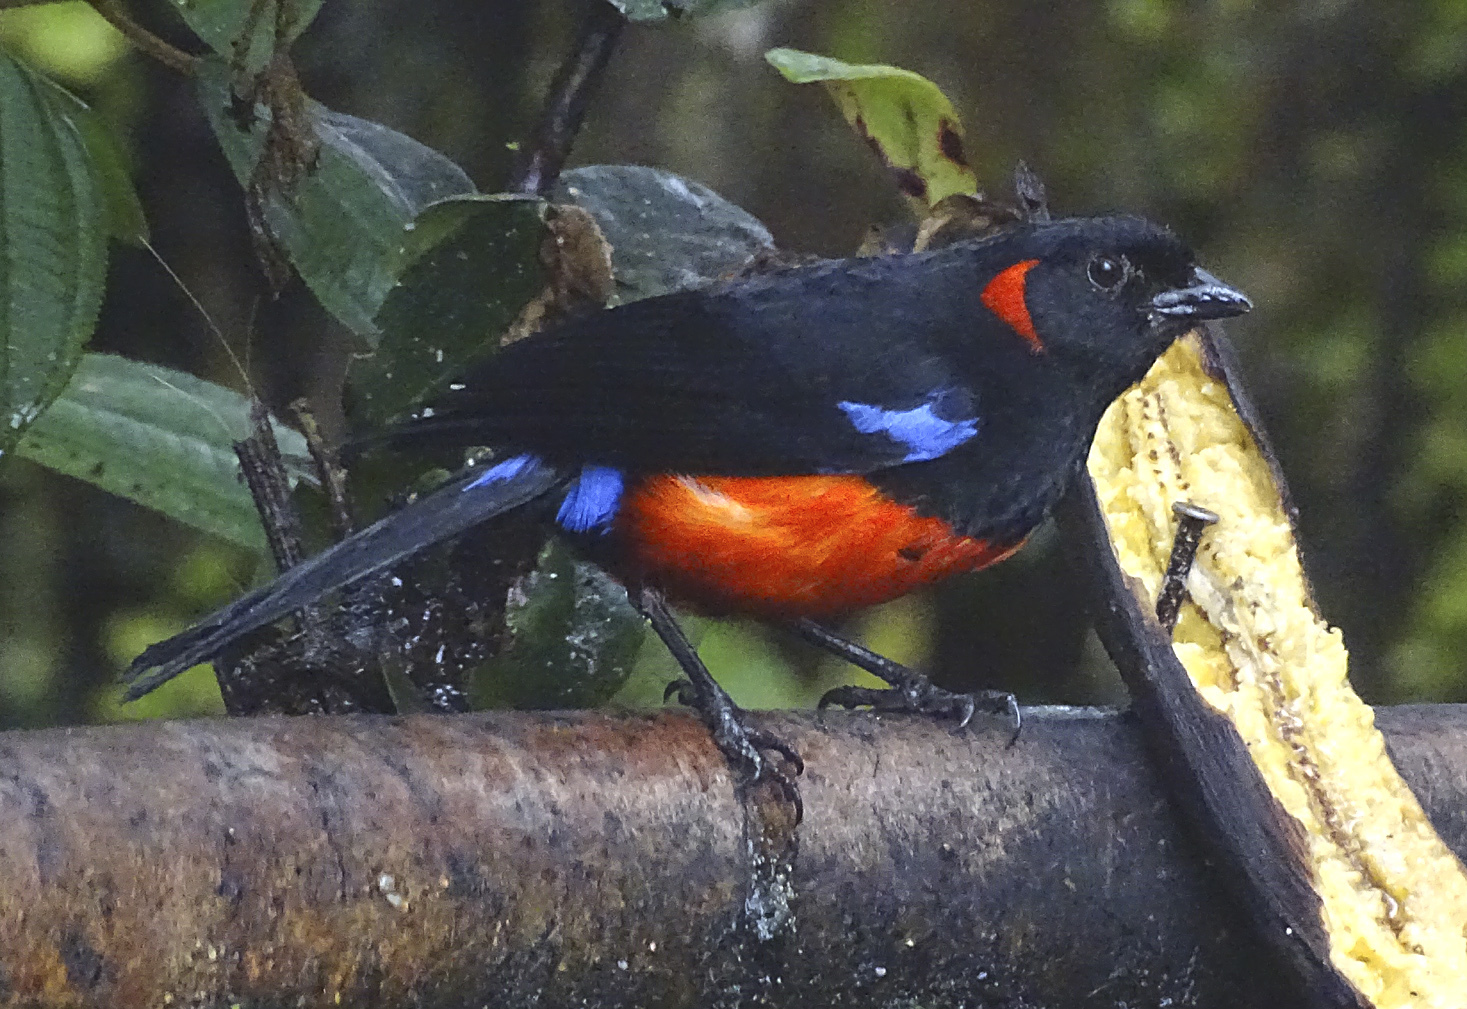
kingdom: Animalia
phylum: Chordata
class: Aves
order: Passeriformes
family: Thraupidae
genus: Anisognathus
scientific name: Anisognathus igniventris
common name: Scarlet-bellied mountain tanager
